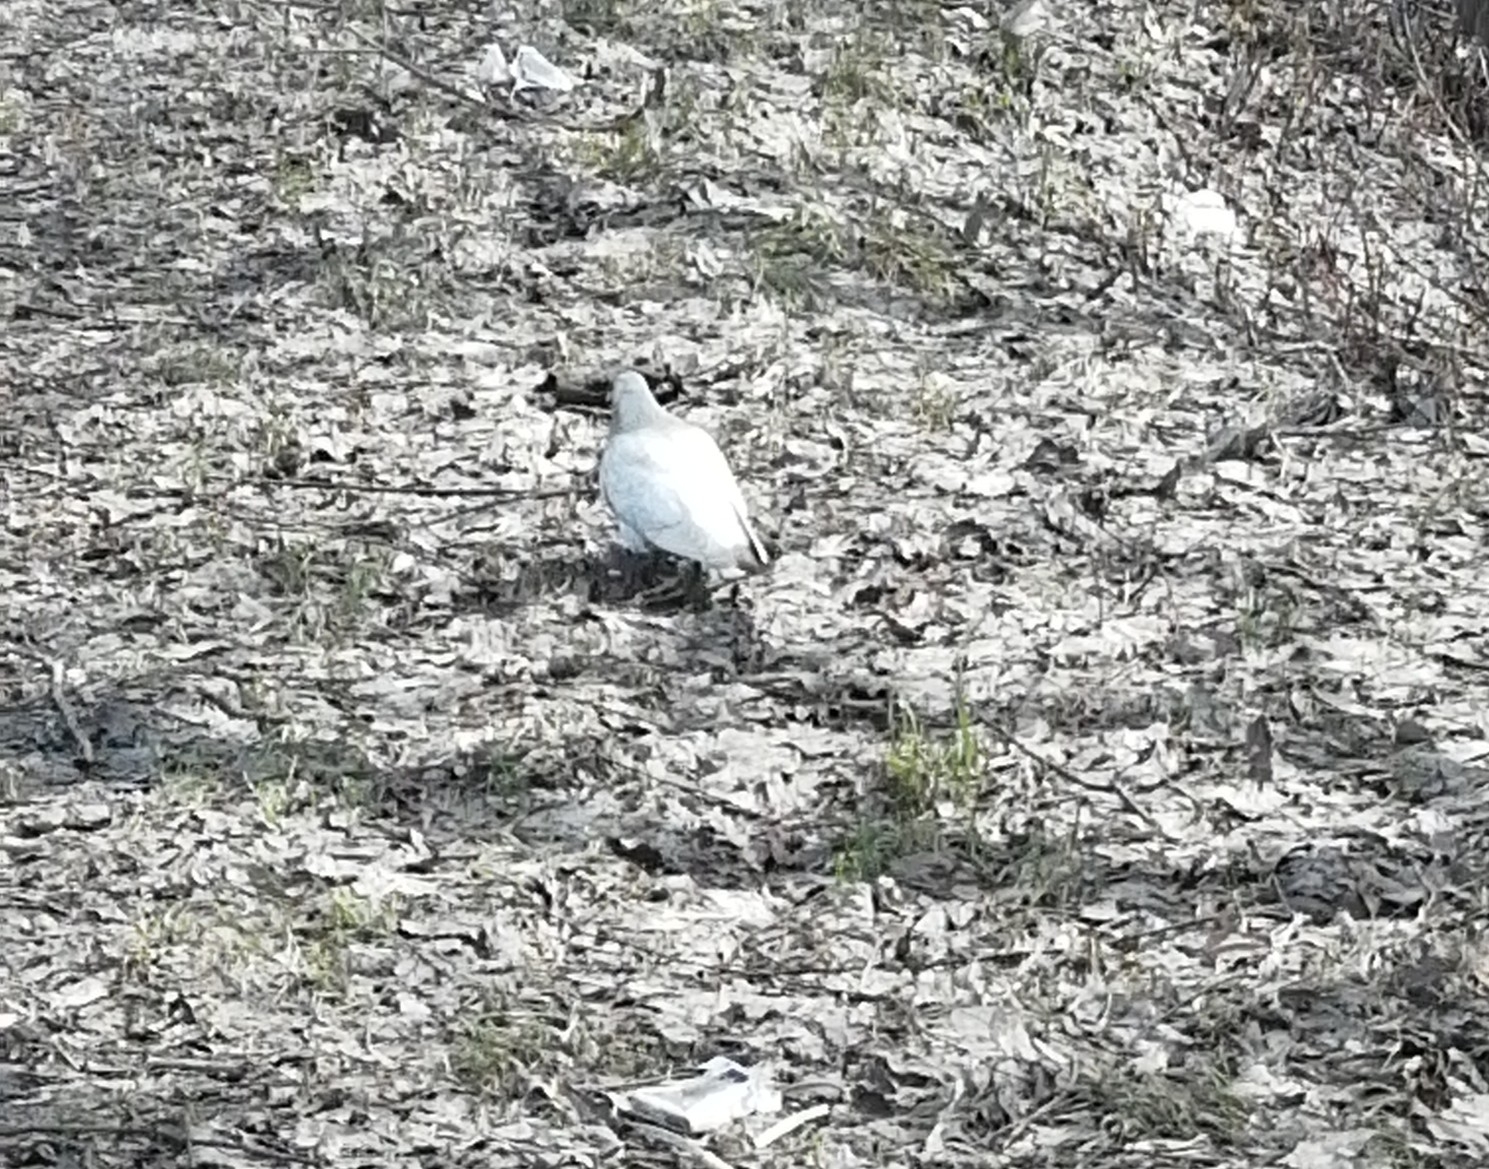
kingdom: Animalia
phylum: Chordata
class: Aves
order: Columbiformes
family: Columbidae
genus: Columba
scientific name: Columba livia
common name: Rock pigeon
